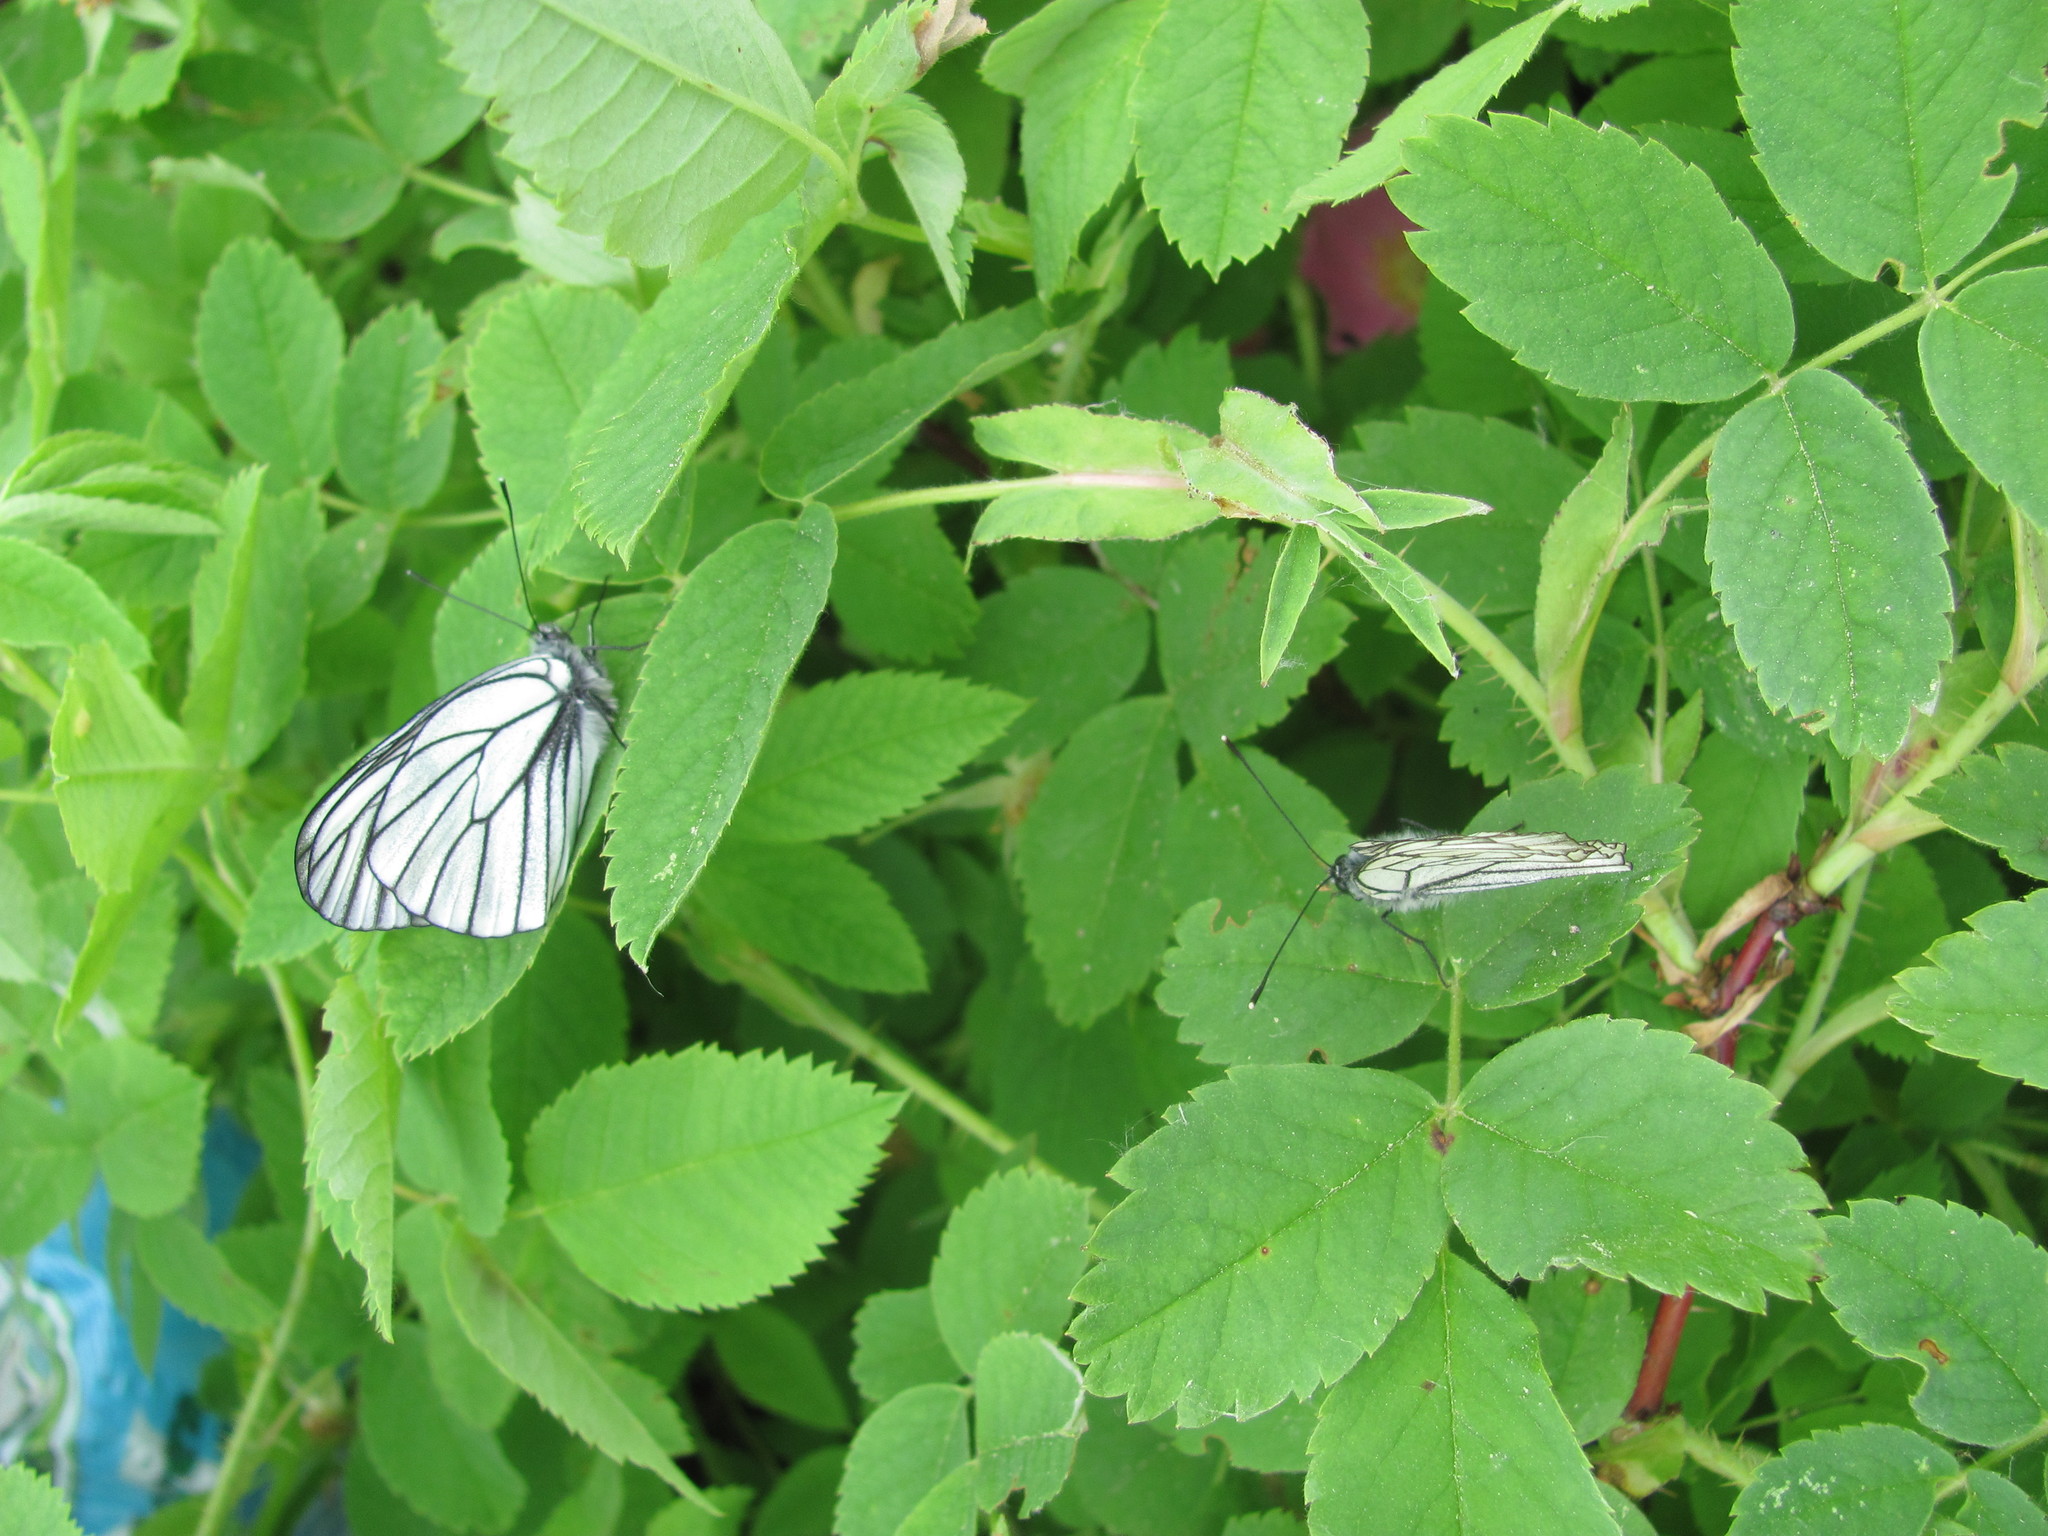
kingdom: Animalia
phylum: Arthropoda
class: Insecta
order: Lepidoptera
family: Pieridae
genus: Aporia
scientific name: Aporia crataegi
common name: Black-veined white
